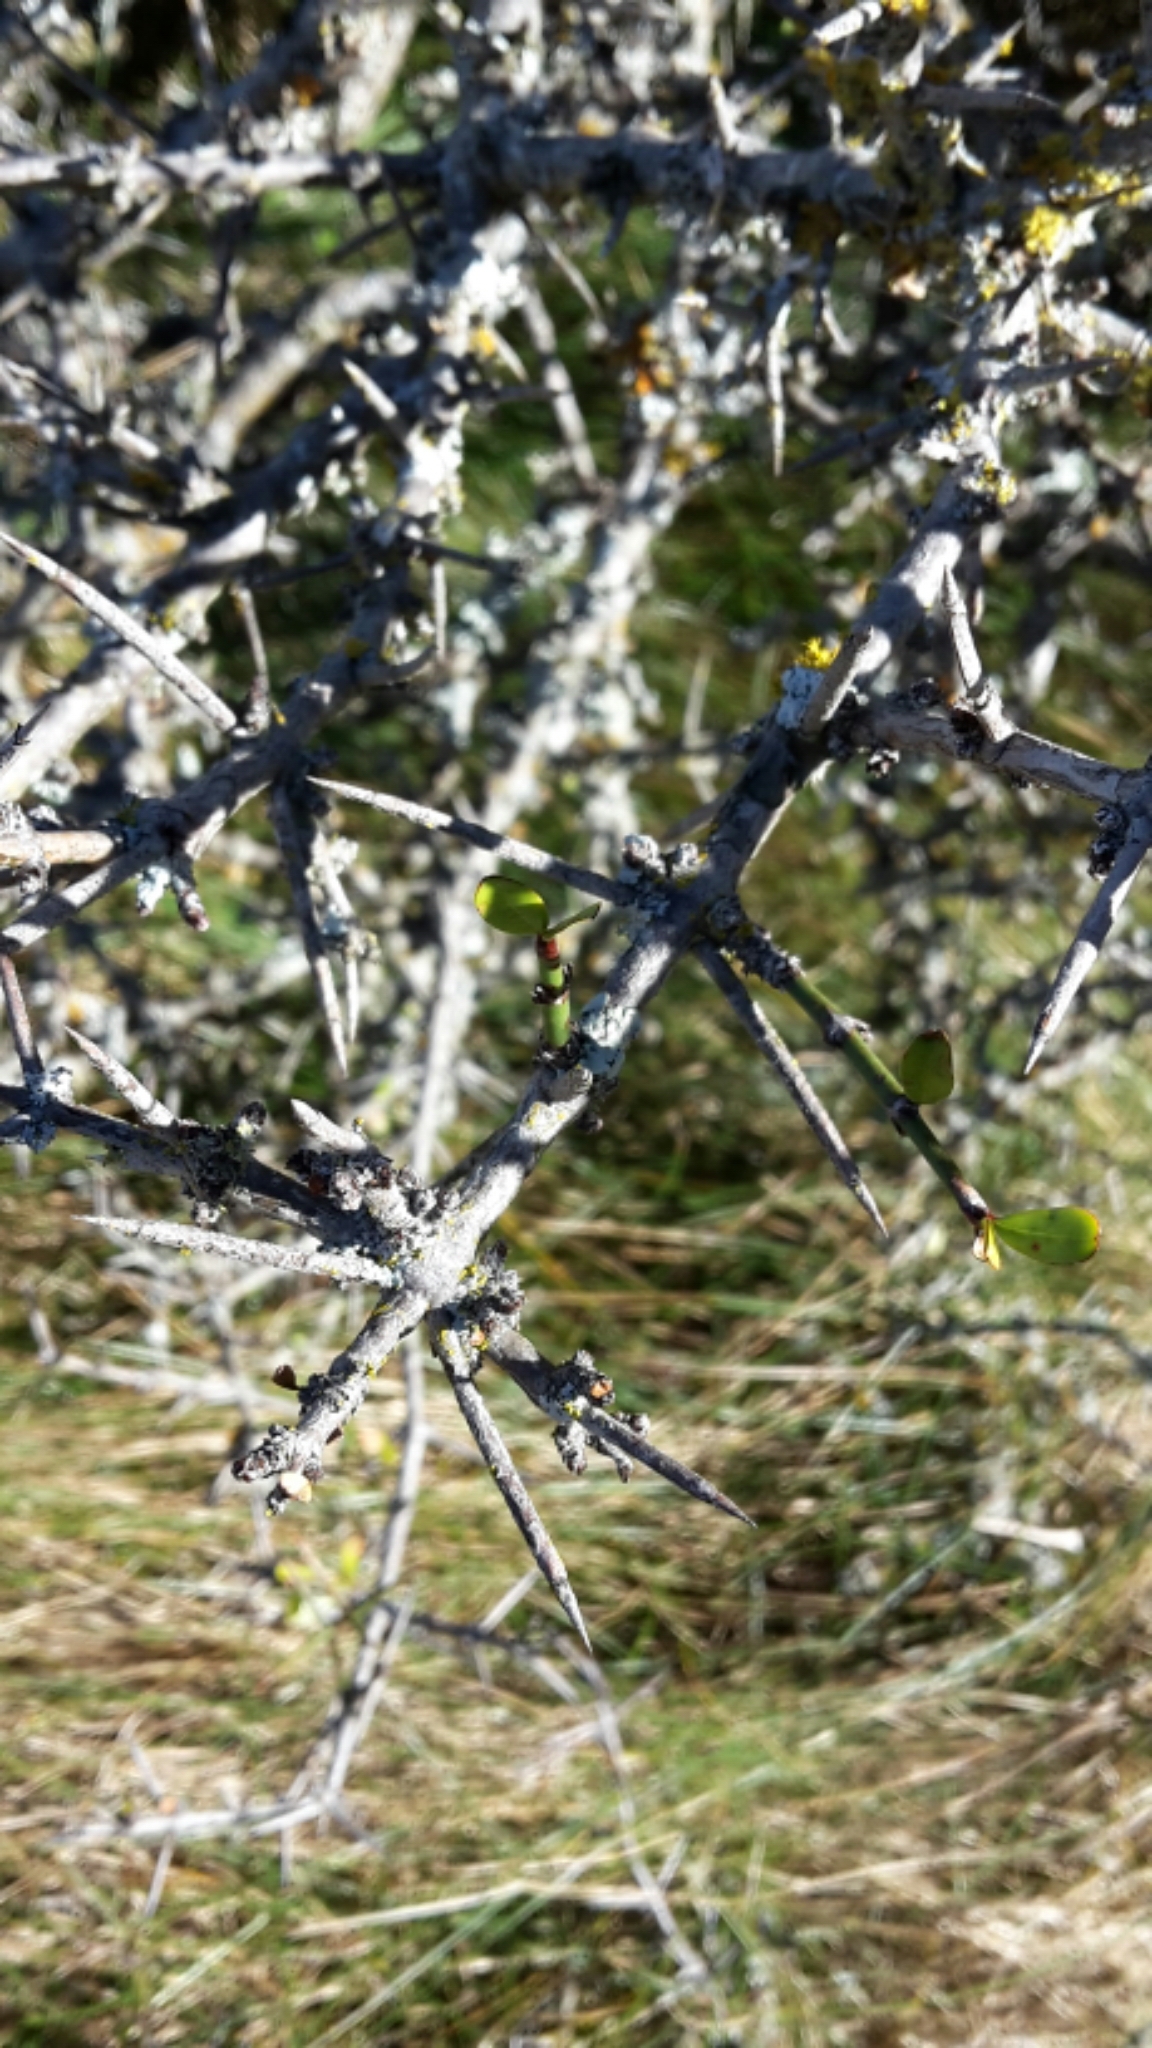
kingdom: Plantae
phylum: Tracheophyta
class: Magnoliopsida
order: Rosales
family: Rhamnaceae
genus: Discaria
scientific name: Discaria toumatou
